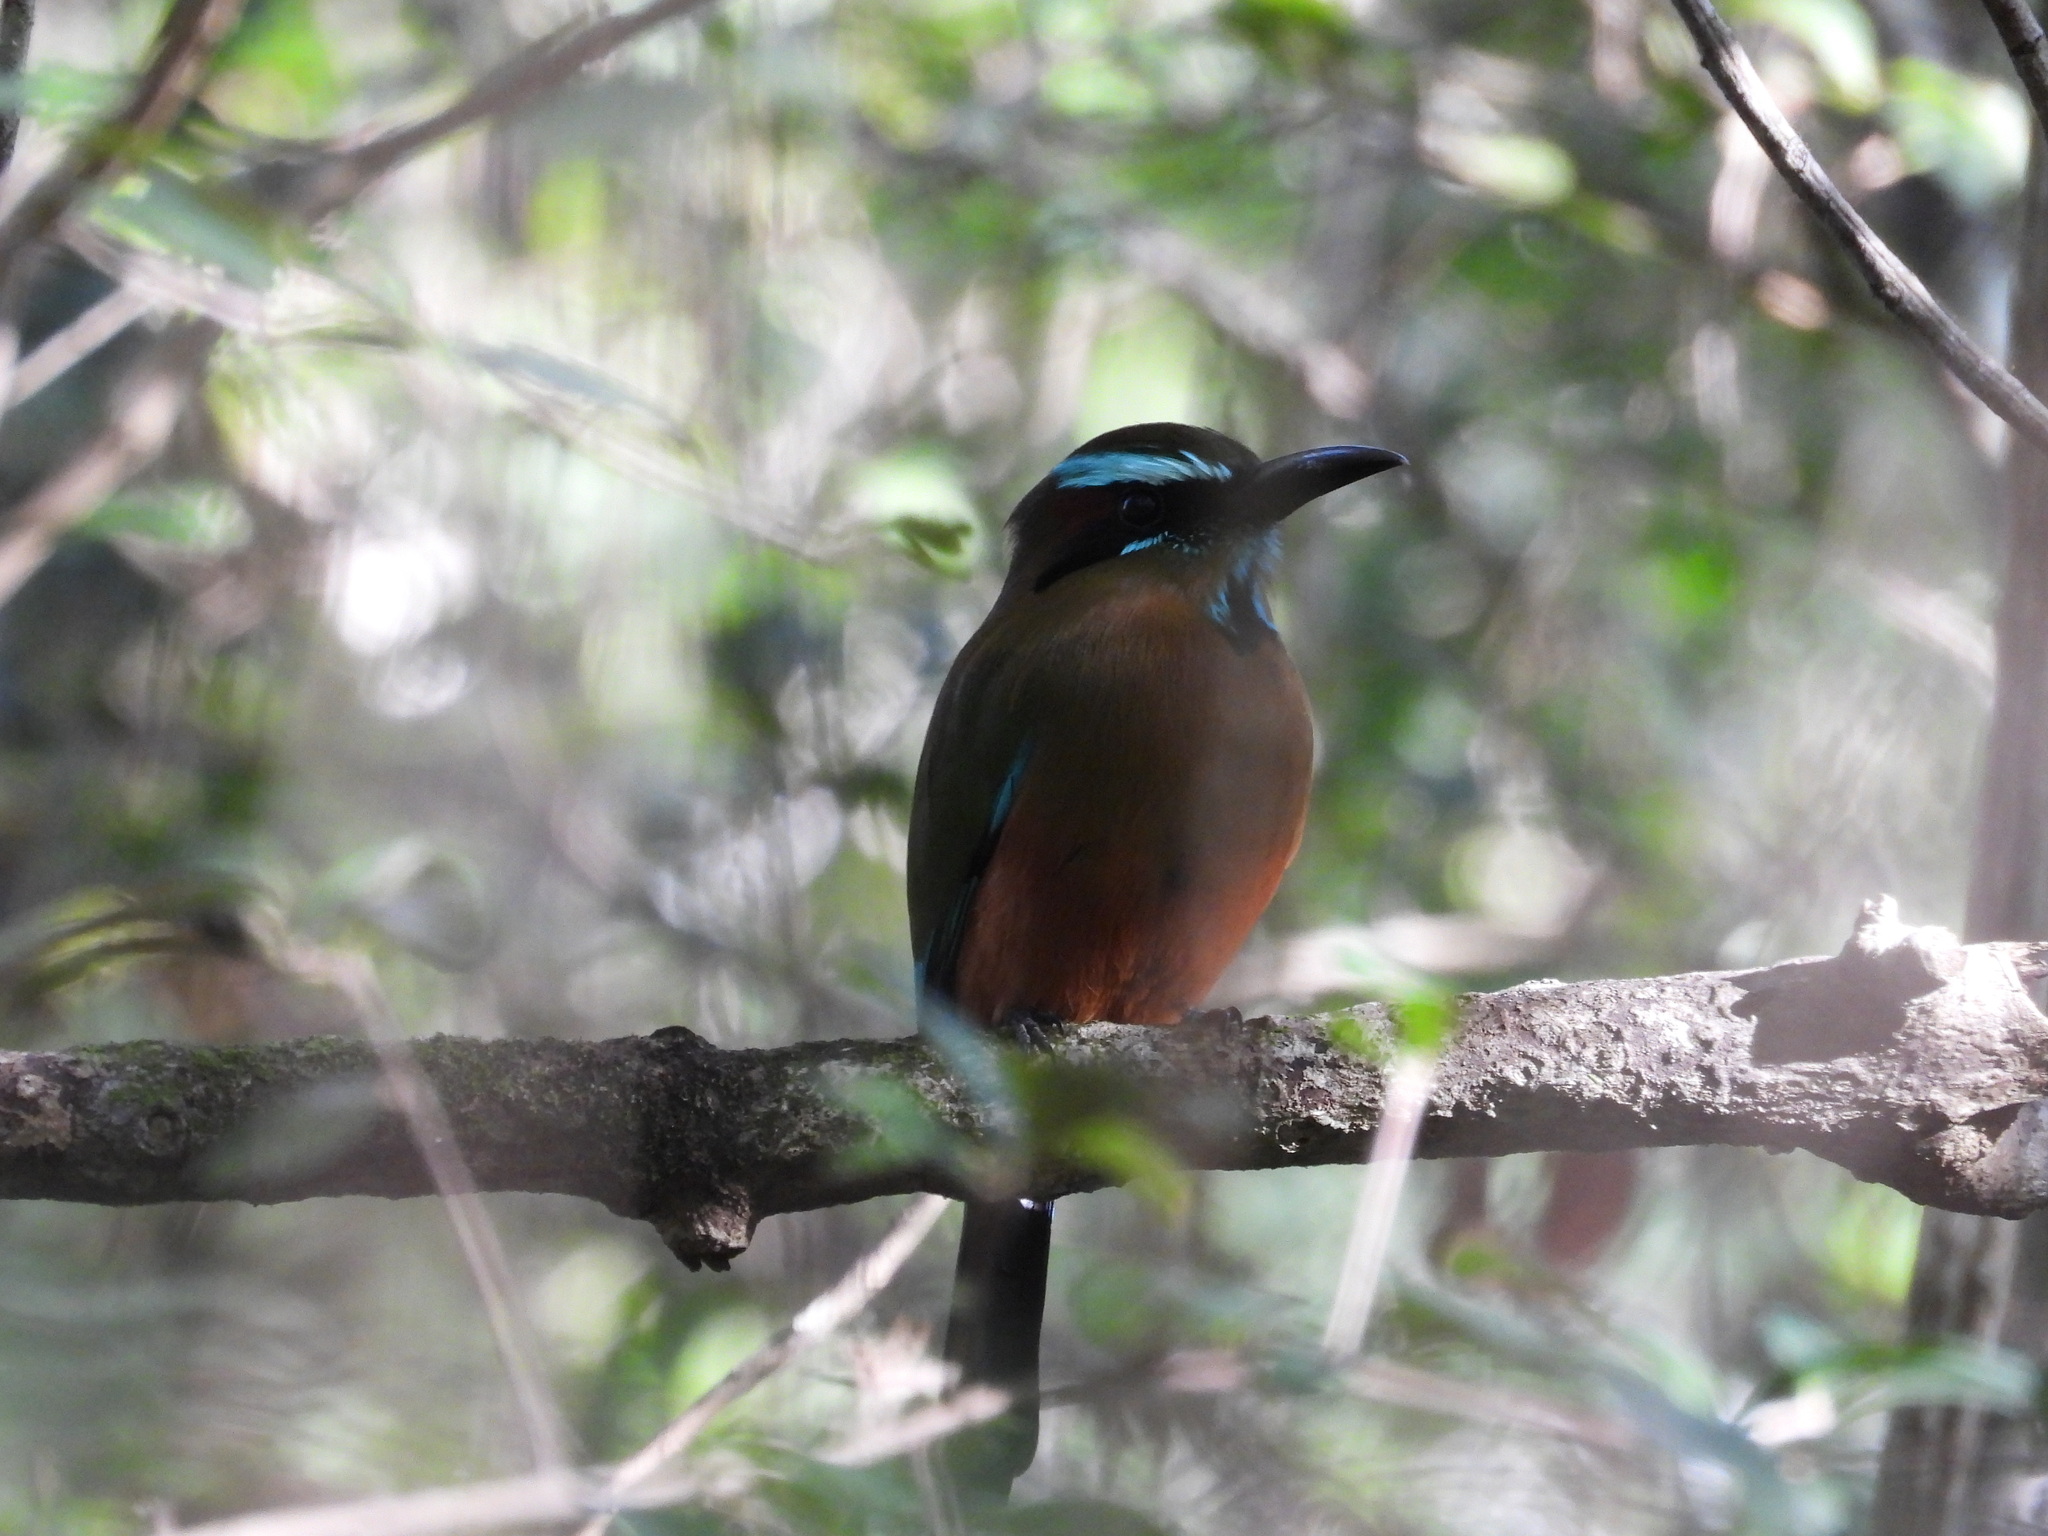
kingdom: Animalia
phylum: Chordata
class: Aves
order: Coraciiformes
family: Momotidae
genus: Eumomota
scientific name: Eumomota superciliosa
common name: Turquoise-browed motmot
